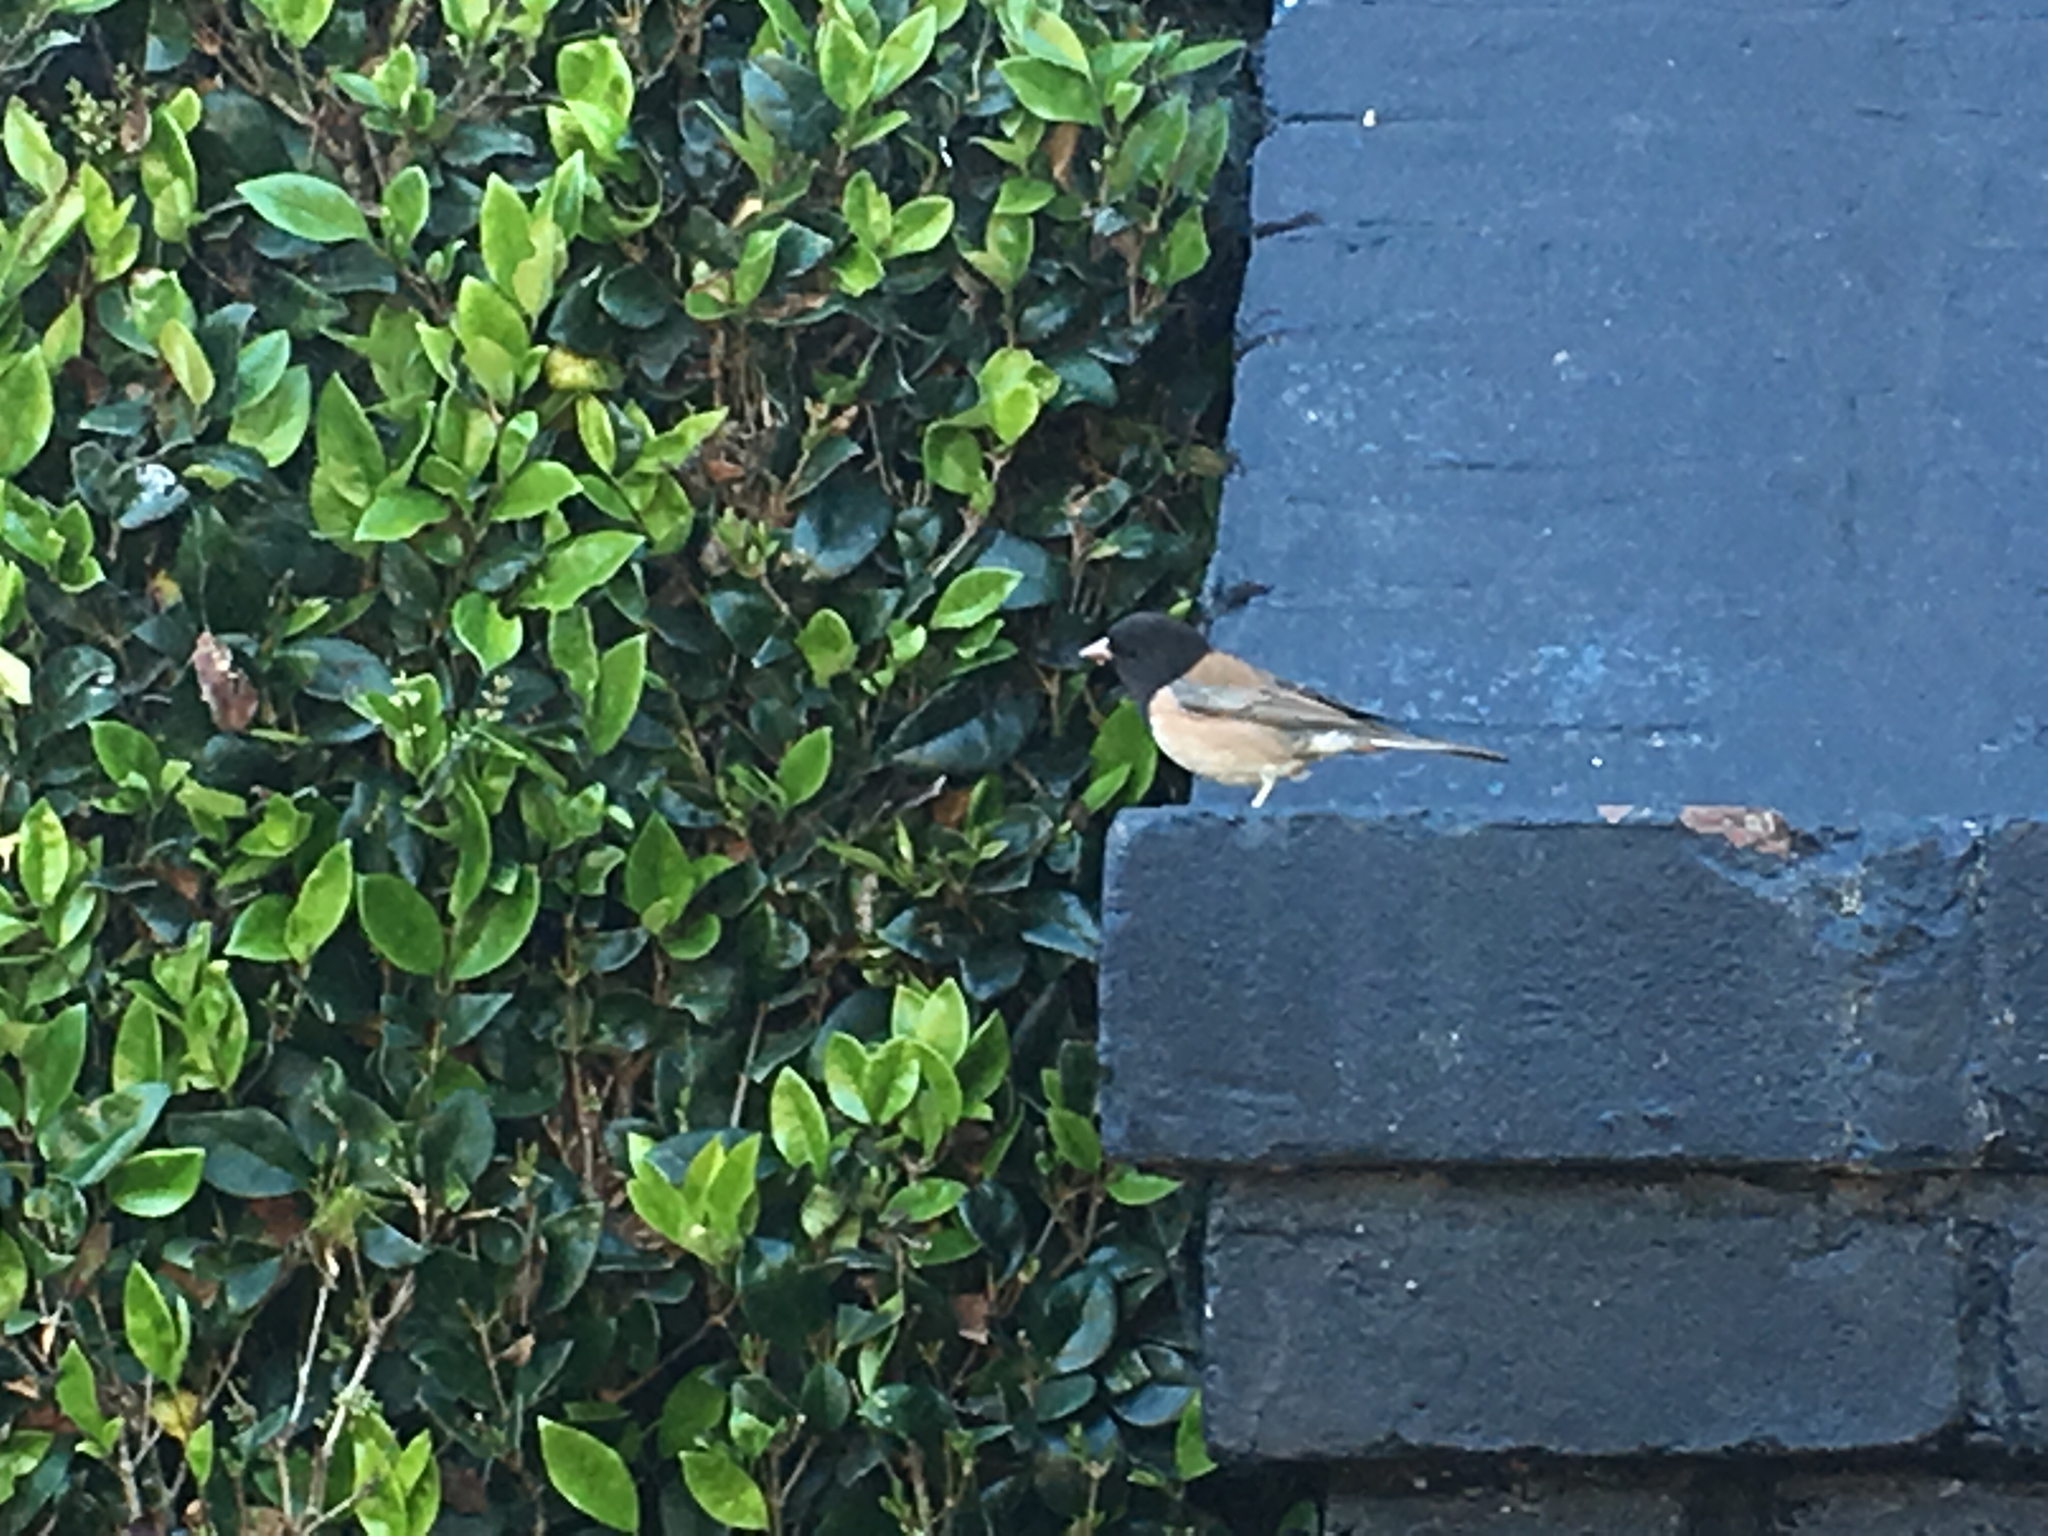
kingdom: Animalia
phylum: Chordata
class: Aves
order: Passeriformes
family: Passerellidae
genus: Junco
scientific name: Junco hyemalis
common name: Dark-eyed junco
